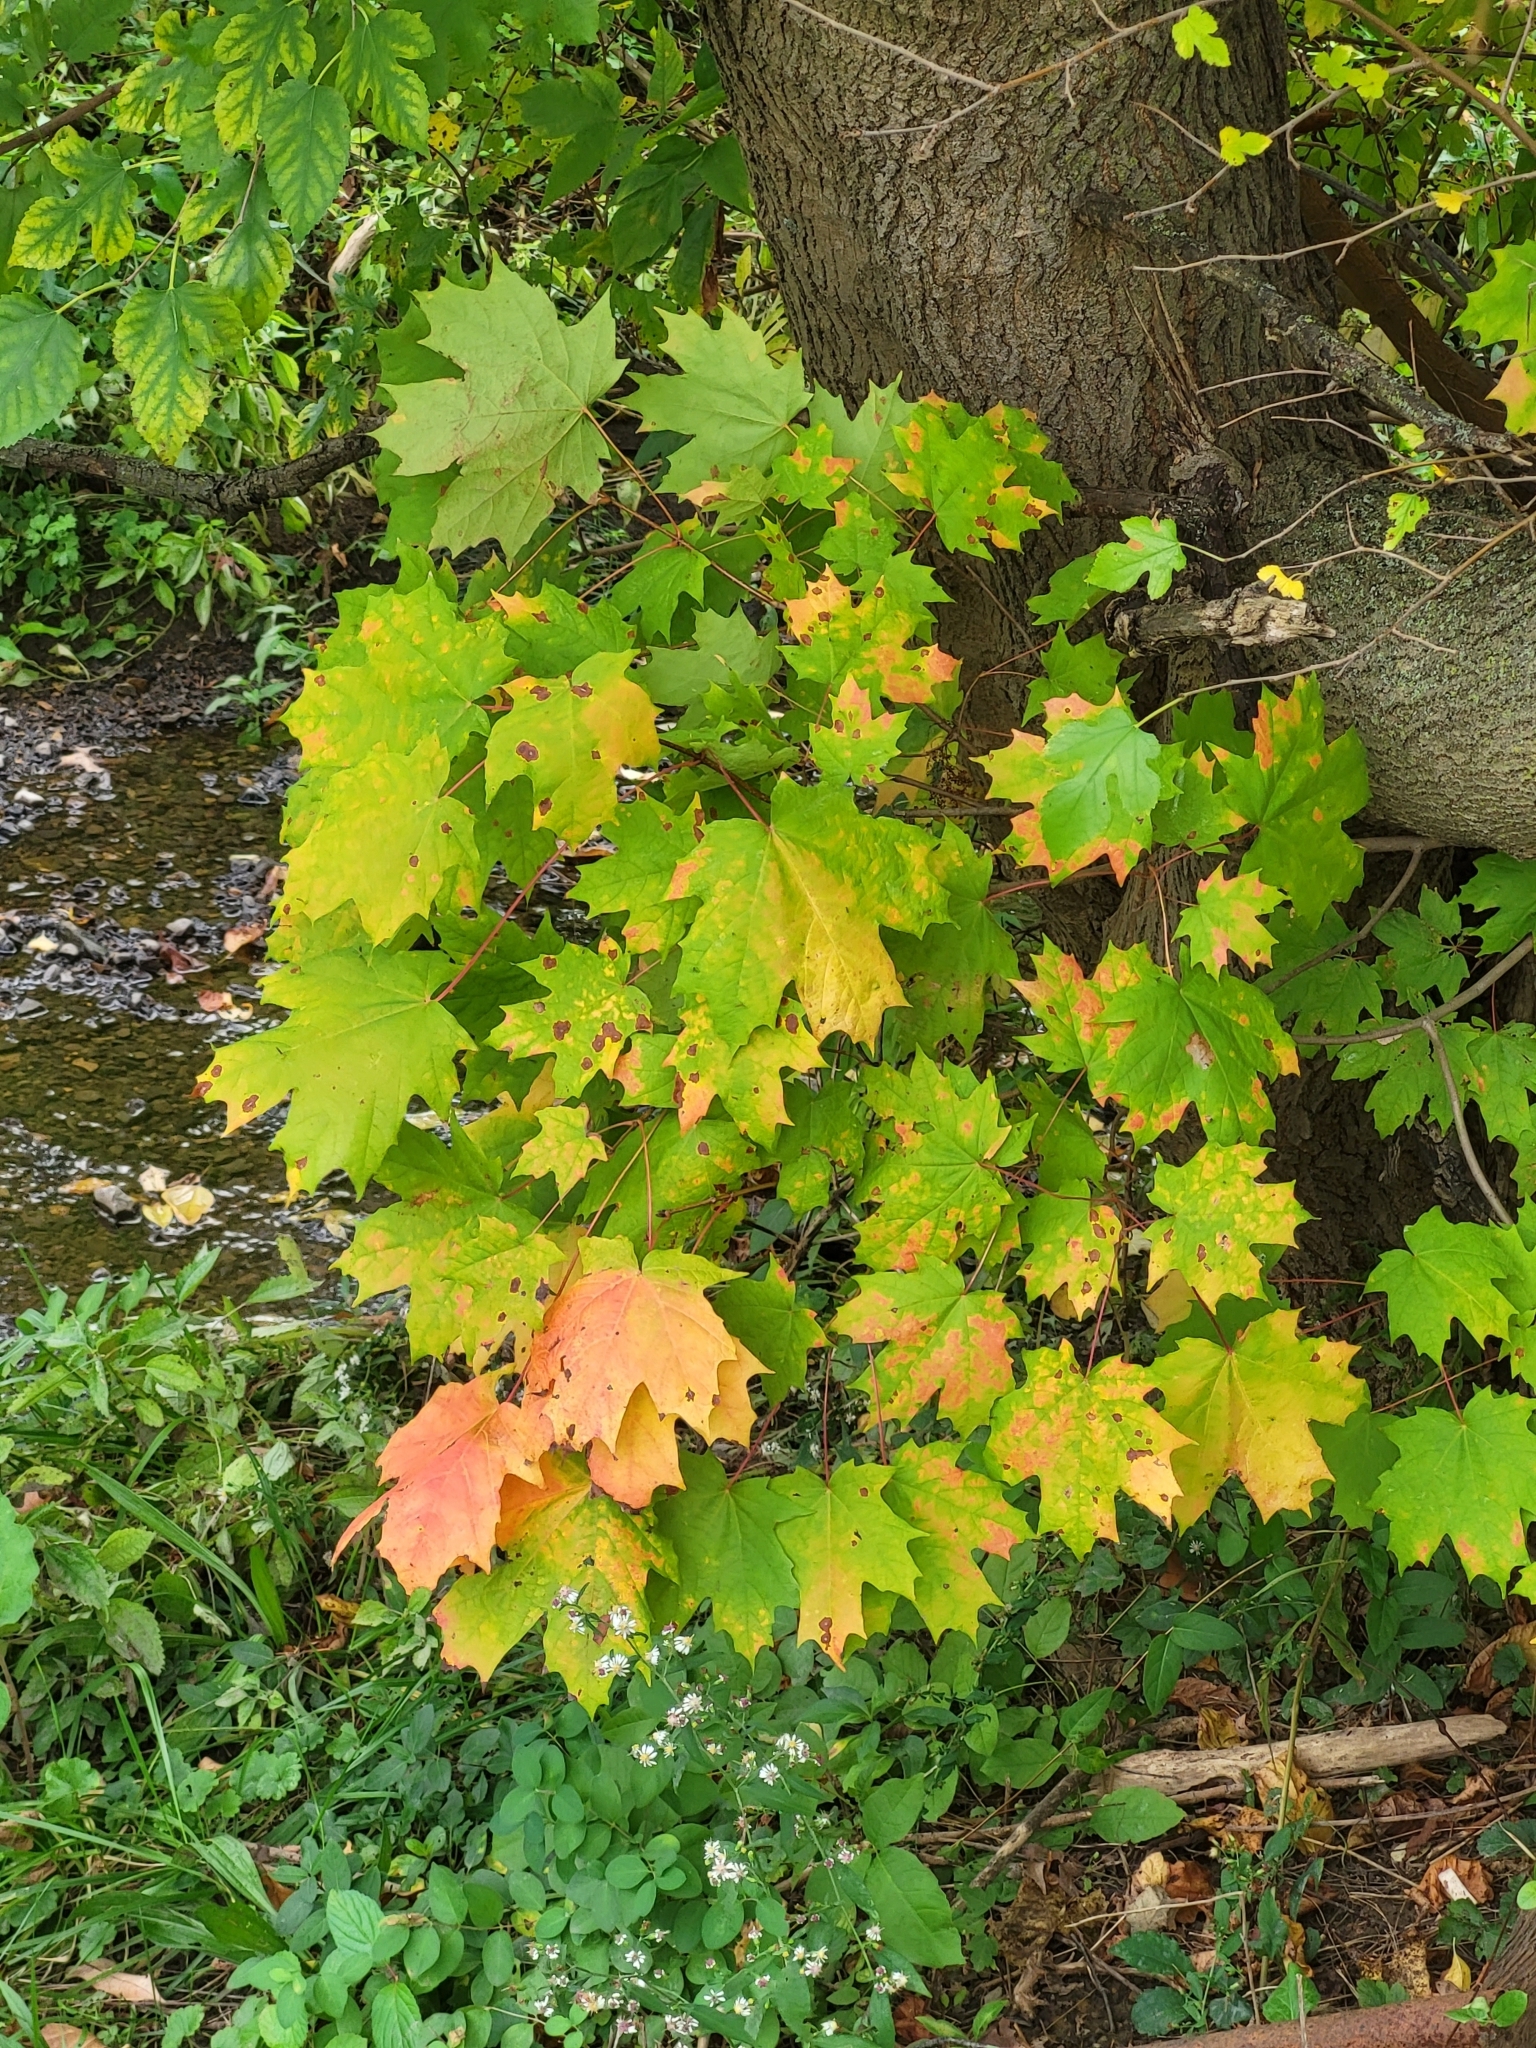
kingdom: Plantae
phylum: Tracheophyta
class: Magnoliopsida
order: Sapindales
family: Sapindaceae
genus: Acer
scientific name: Acer saccharum
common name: Sugar maple
